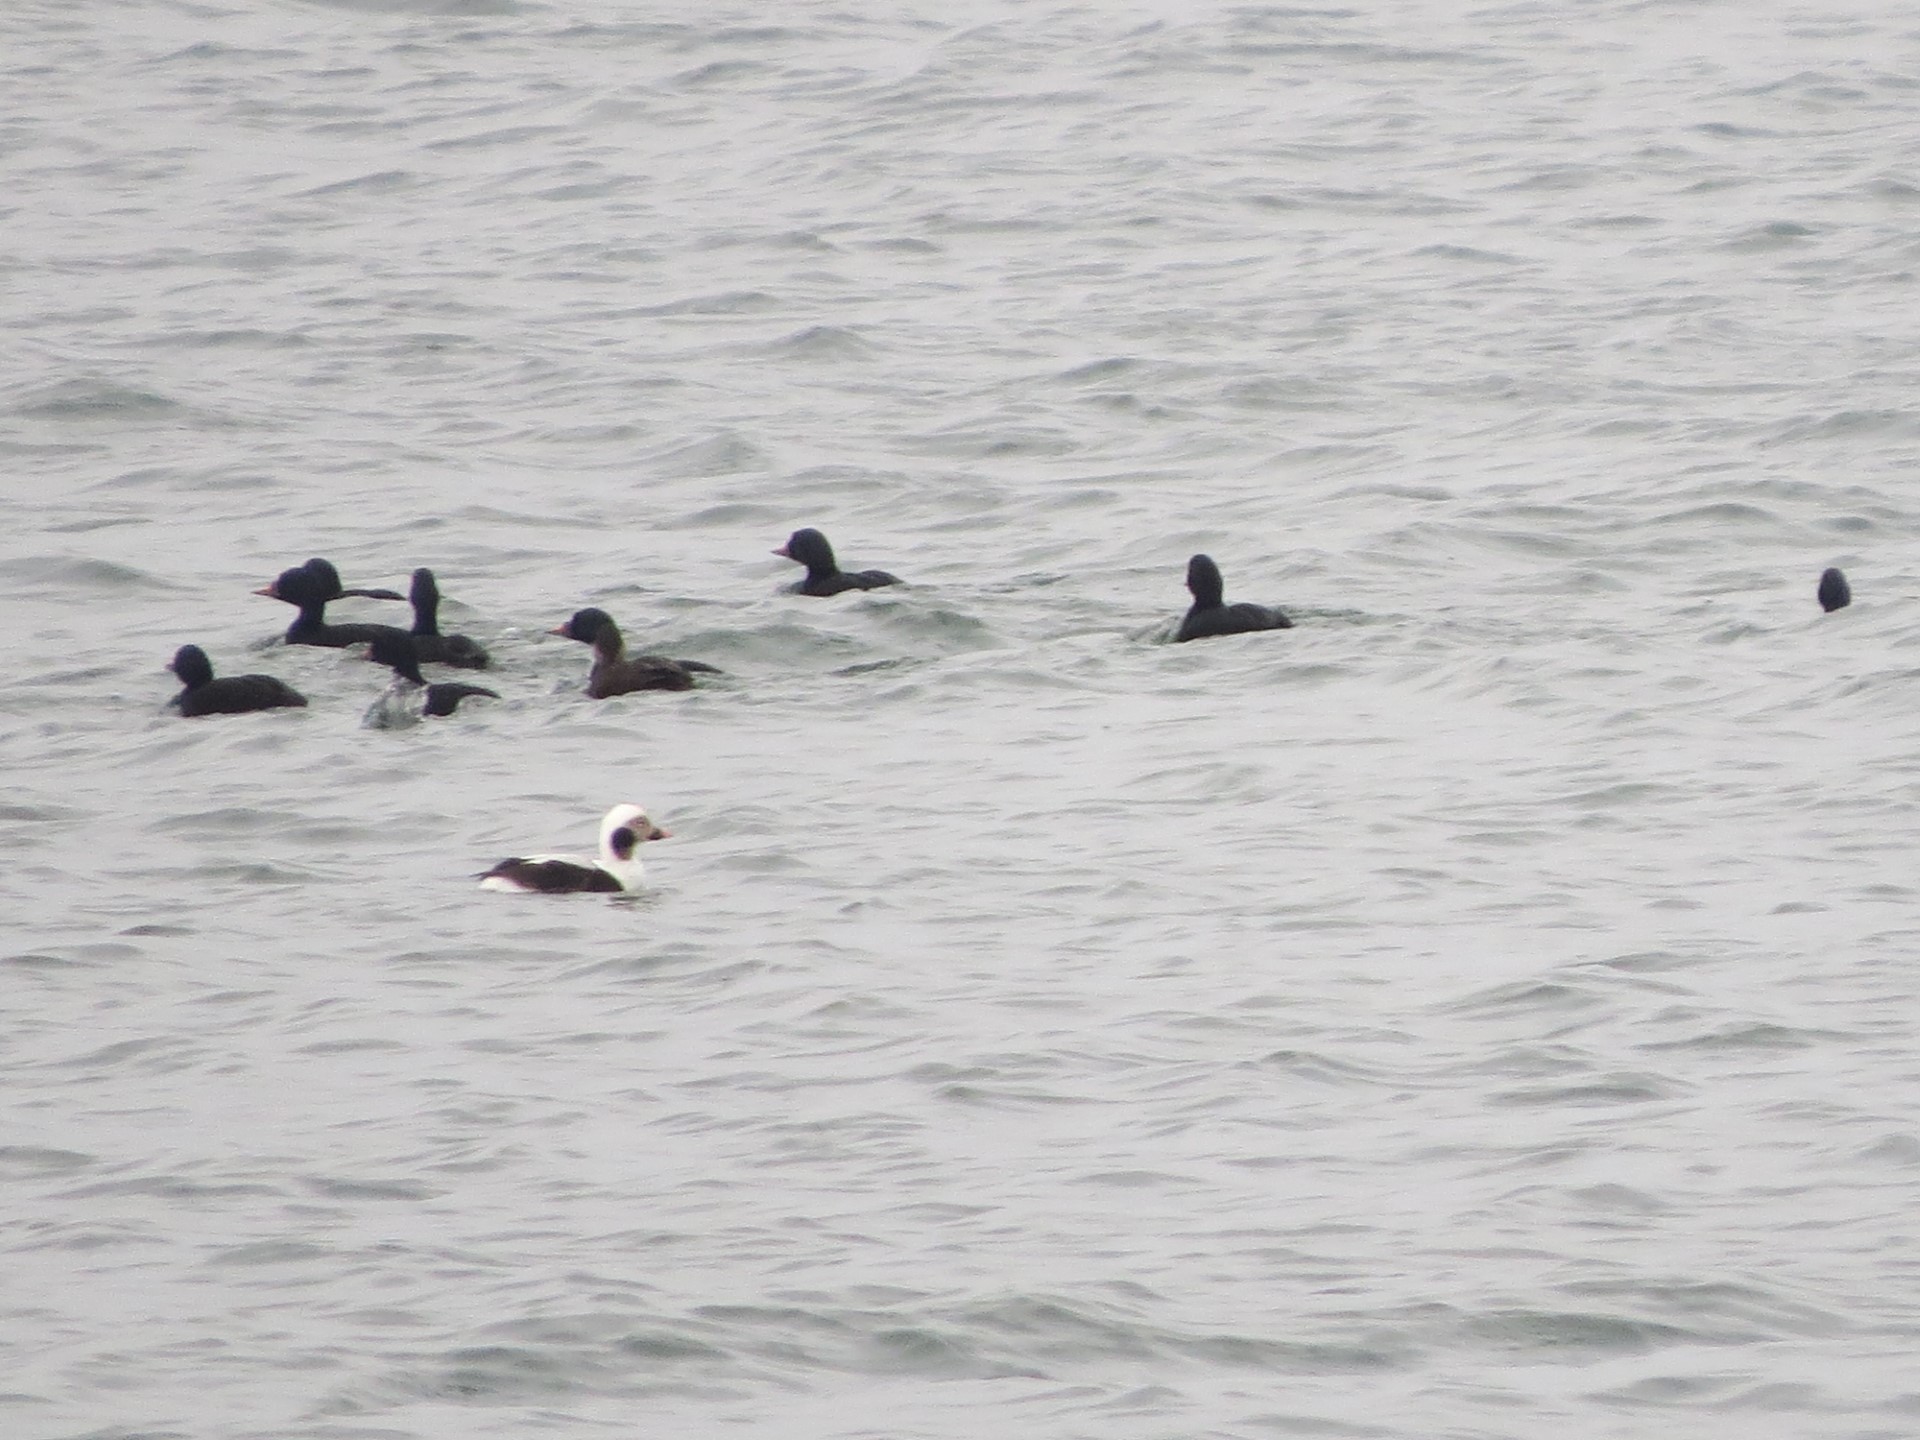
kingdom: Animalia
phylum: Chordata
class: Aves
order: Anseriformes
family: Anatidae
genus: Melanitta
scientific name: Melanitta nigra
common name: Common scoter
